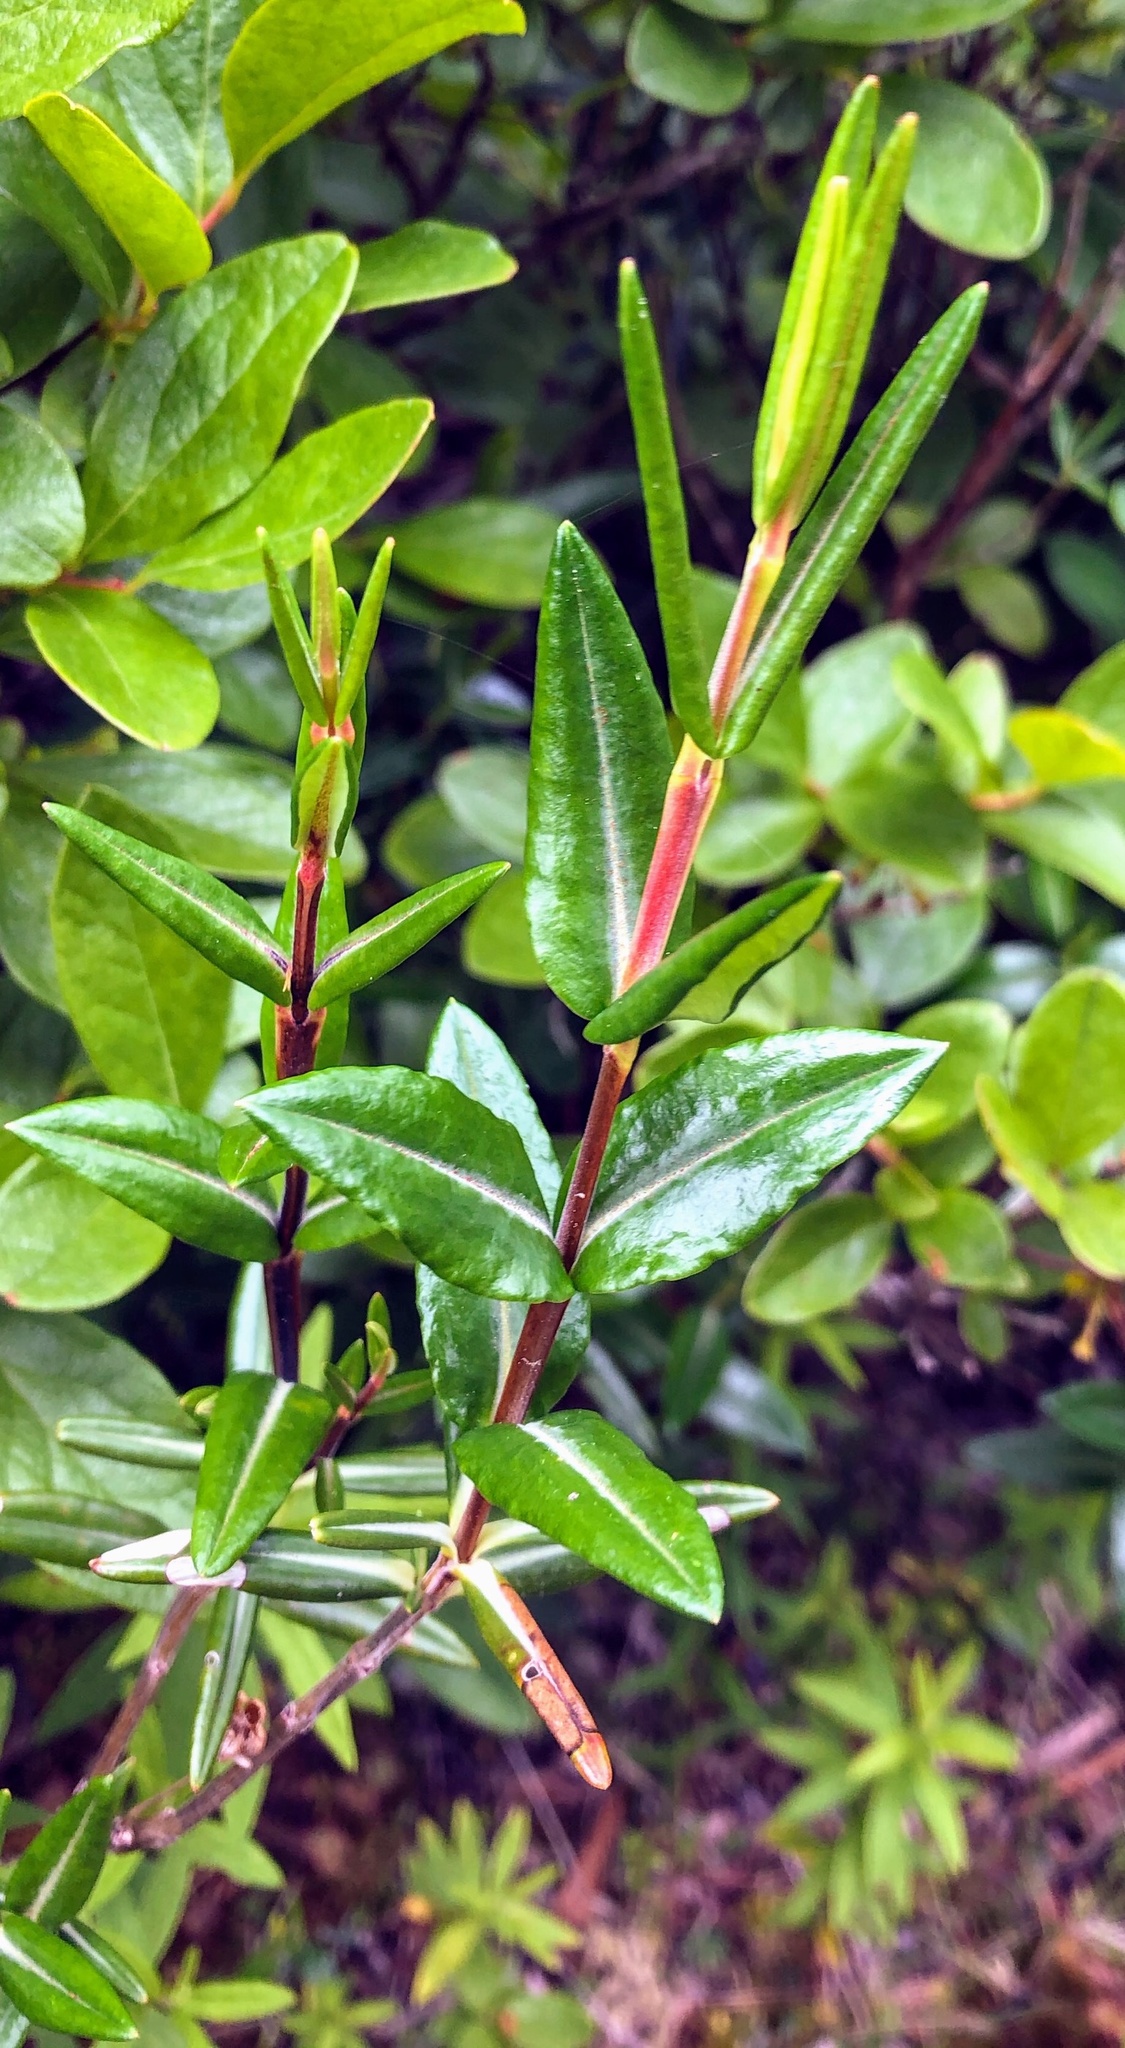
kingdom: Plantae
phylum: Tracheophyta
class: Magnoliopsida
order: Ericales
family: Ericaceae
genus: Kalmia
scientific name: Kalmia polifolia
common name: Bog-laurel
